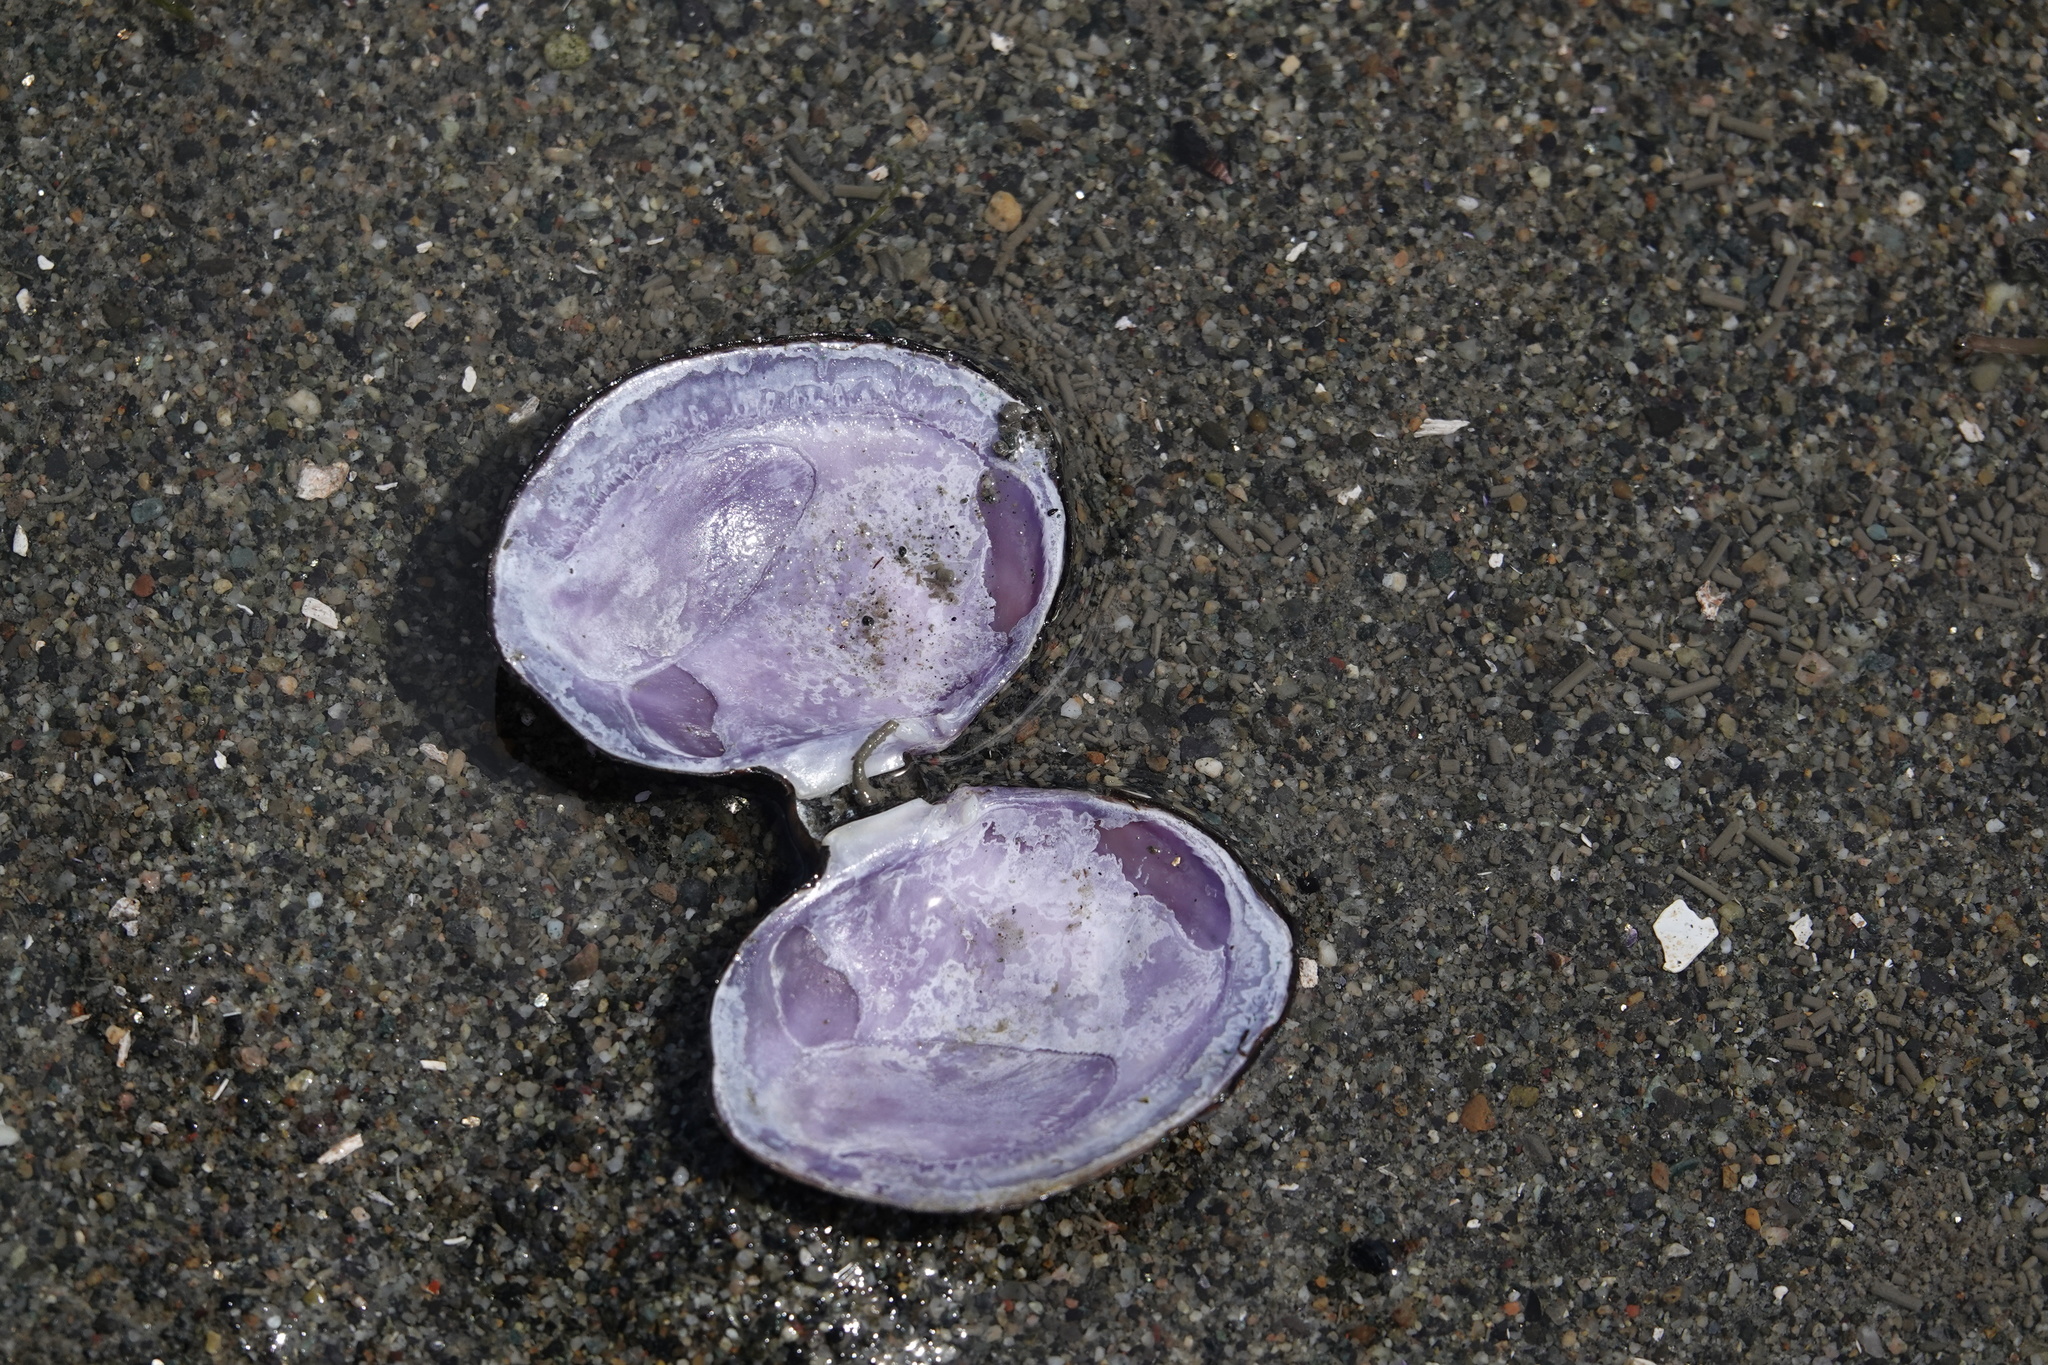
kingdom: Animalia
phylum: Mollusca
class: Bivalvia
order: Cardiida
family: Psammobiidae
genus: Nuttallia
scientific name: Nuttallia obscurata
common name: Purple mahogany-clam
